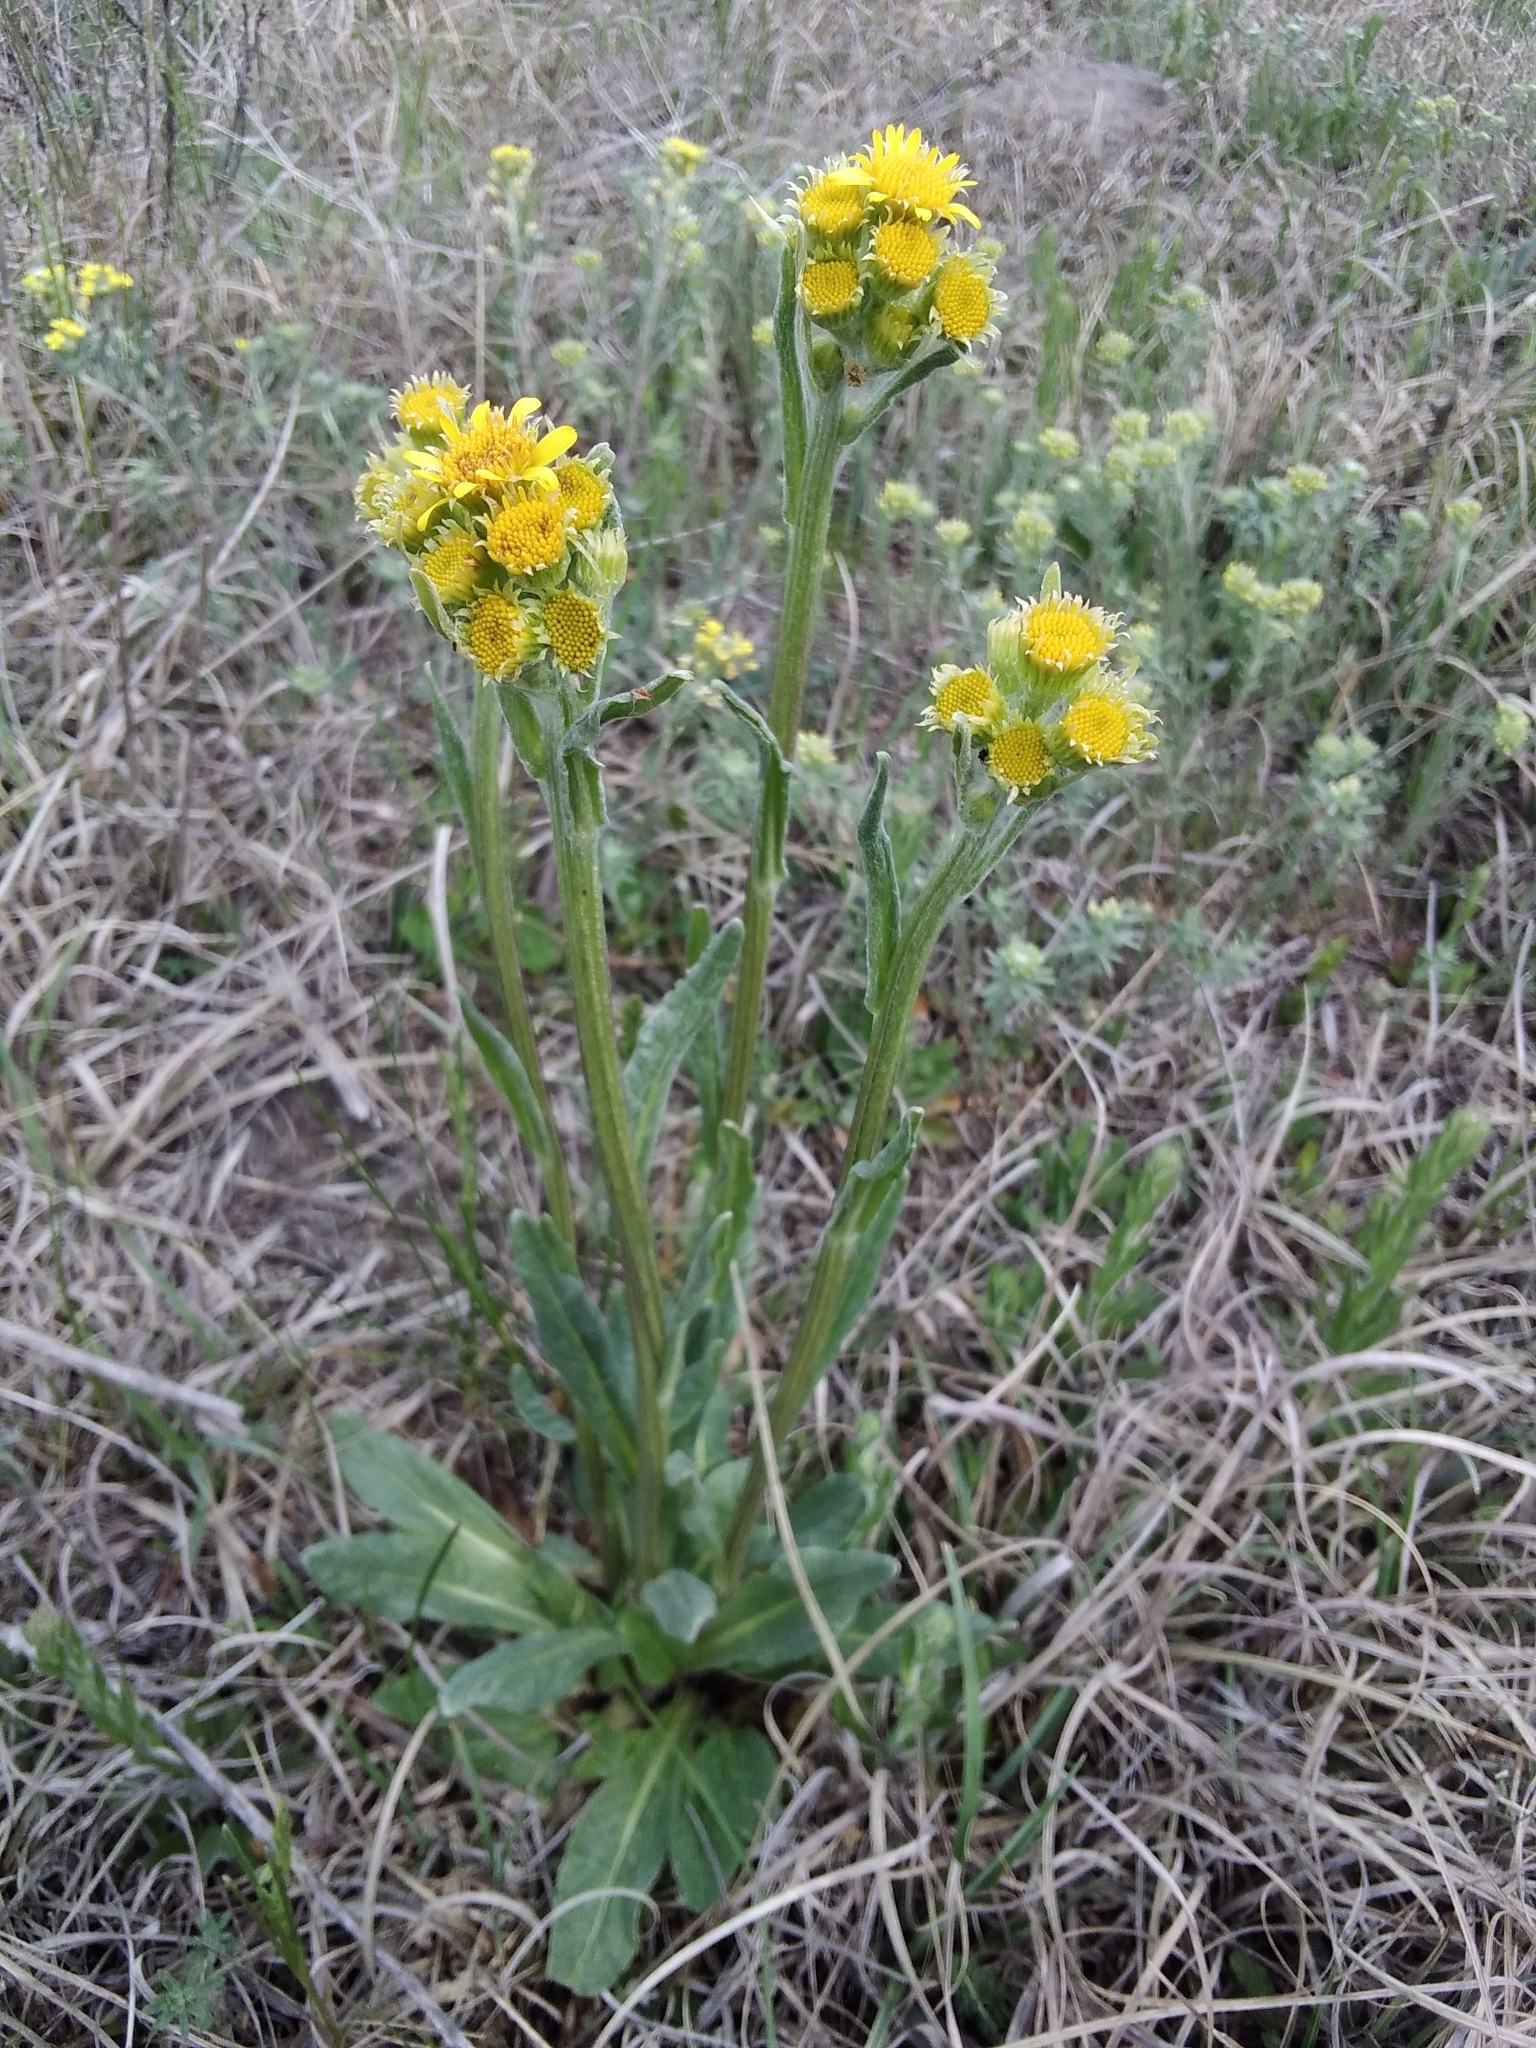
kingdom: Plantae
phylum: Tracheophyta
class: Magnoliopsida
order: Asterales
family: Asteraceae
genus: Tephroseris
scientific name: Tephroseris integrifolia
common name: Field fleawort
